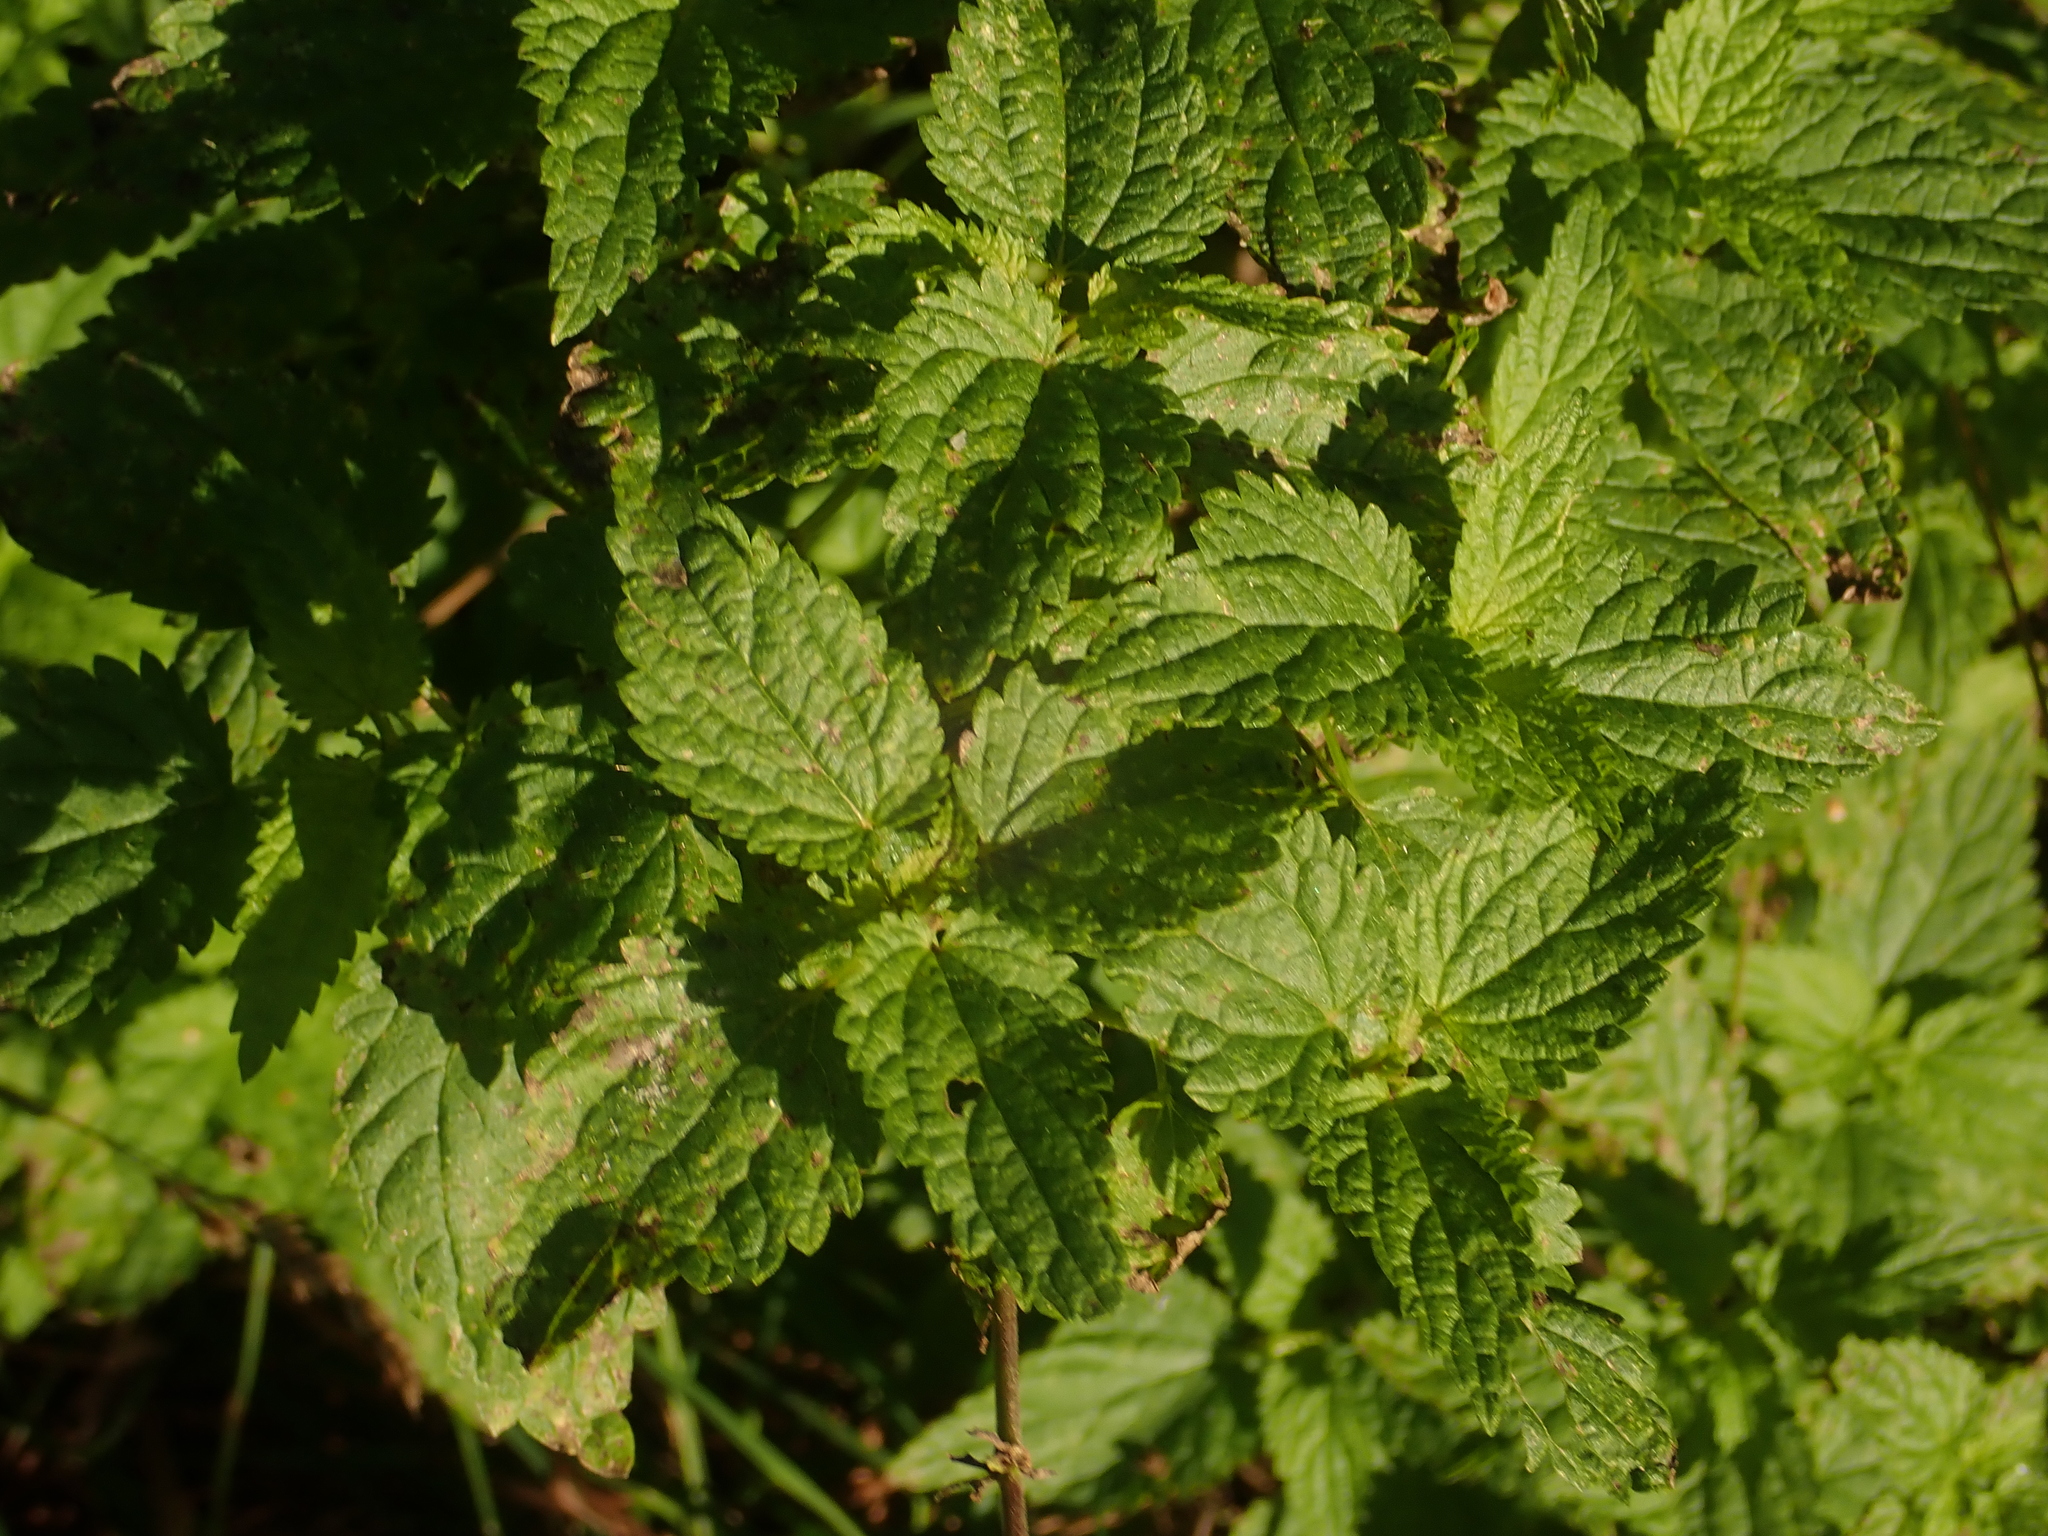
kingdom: Plantae
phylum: Tracheophyta
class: Magnoliopsida
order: Rosales
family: Urticaceae
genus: Urtica
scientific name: Urtica dioica
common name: Common nettle
